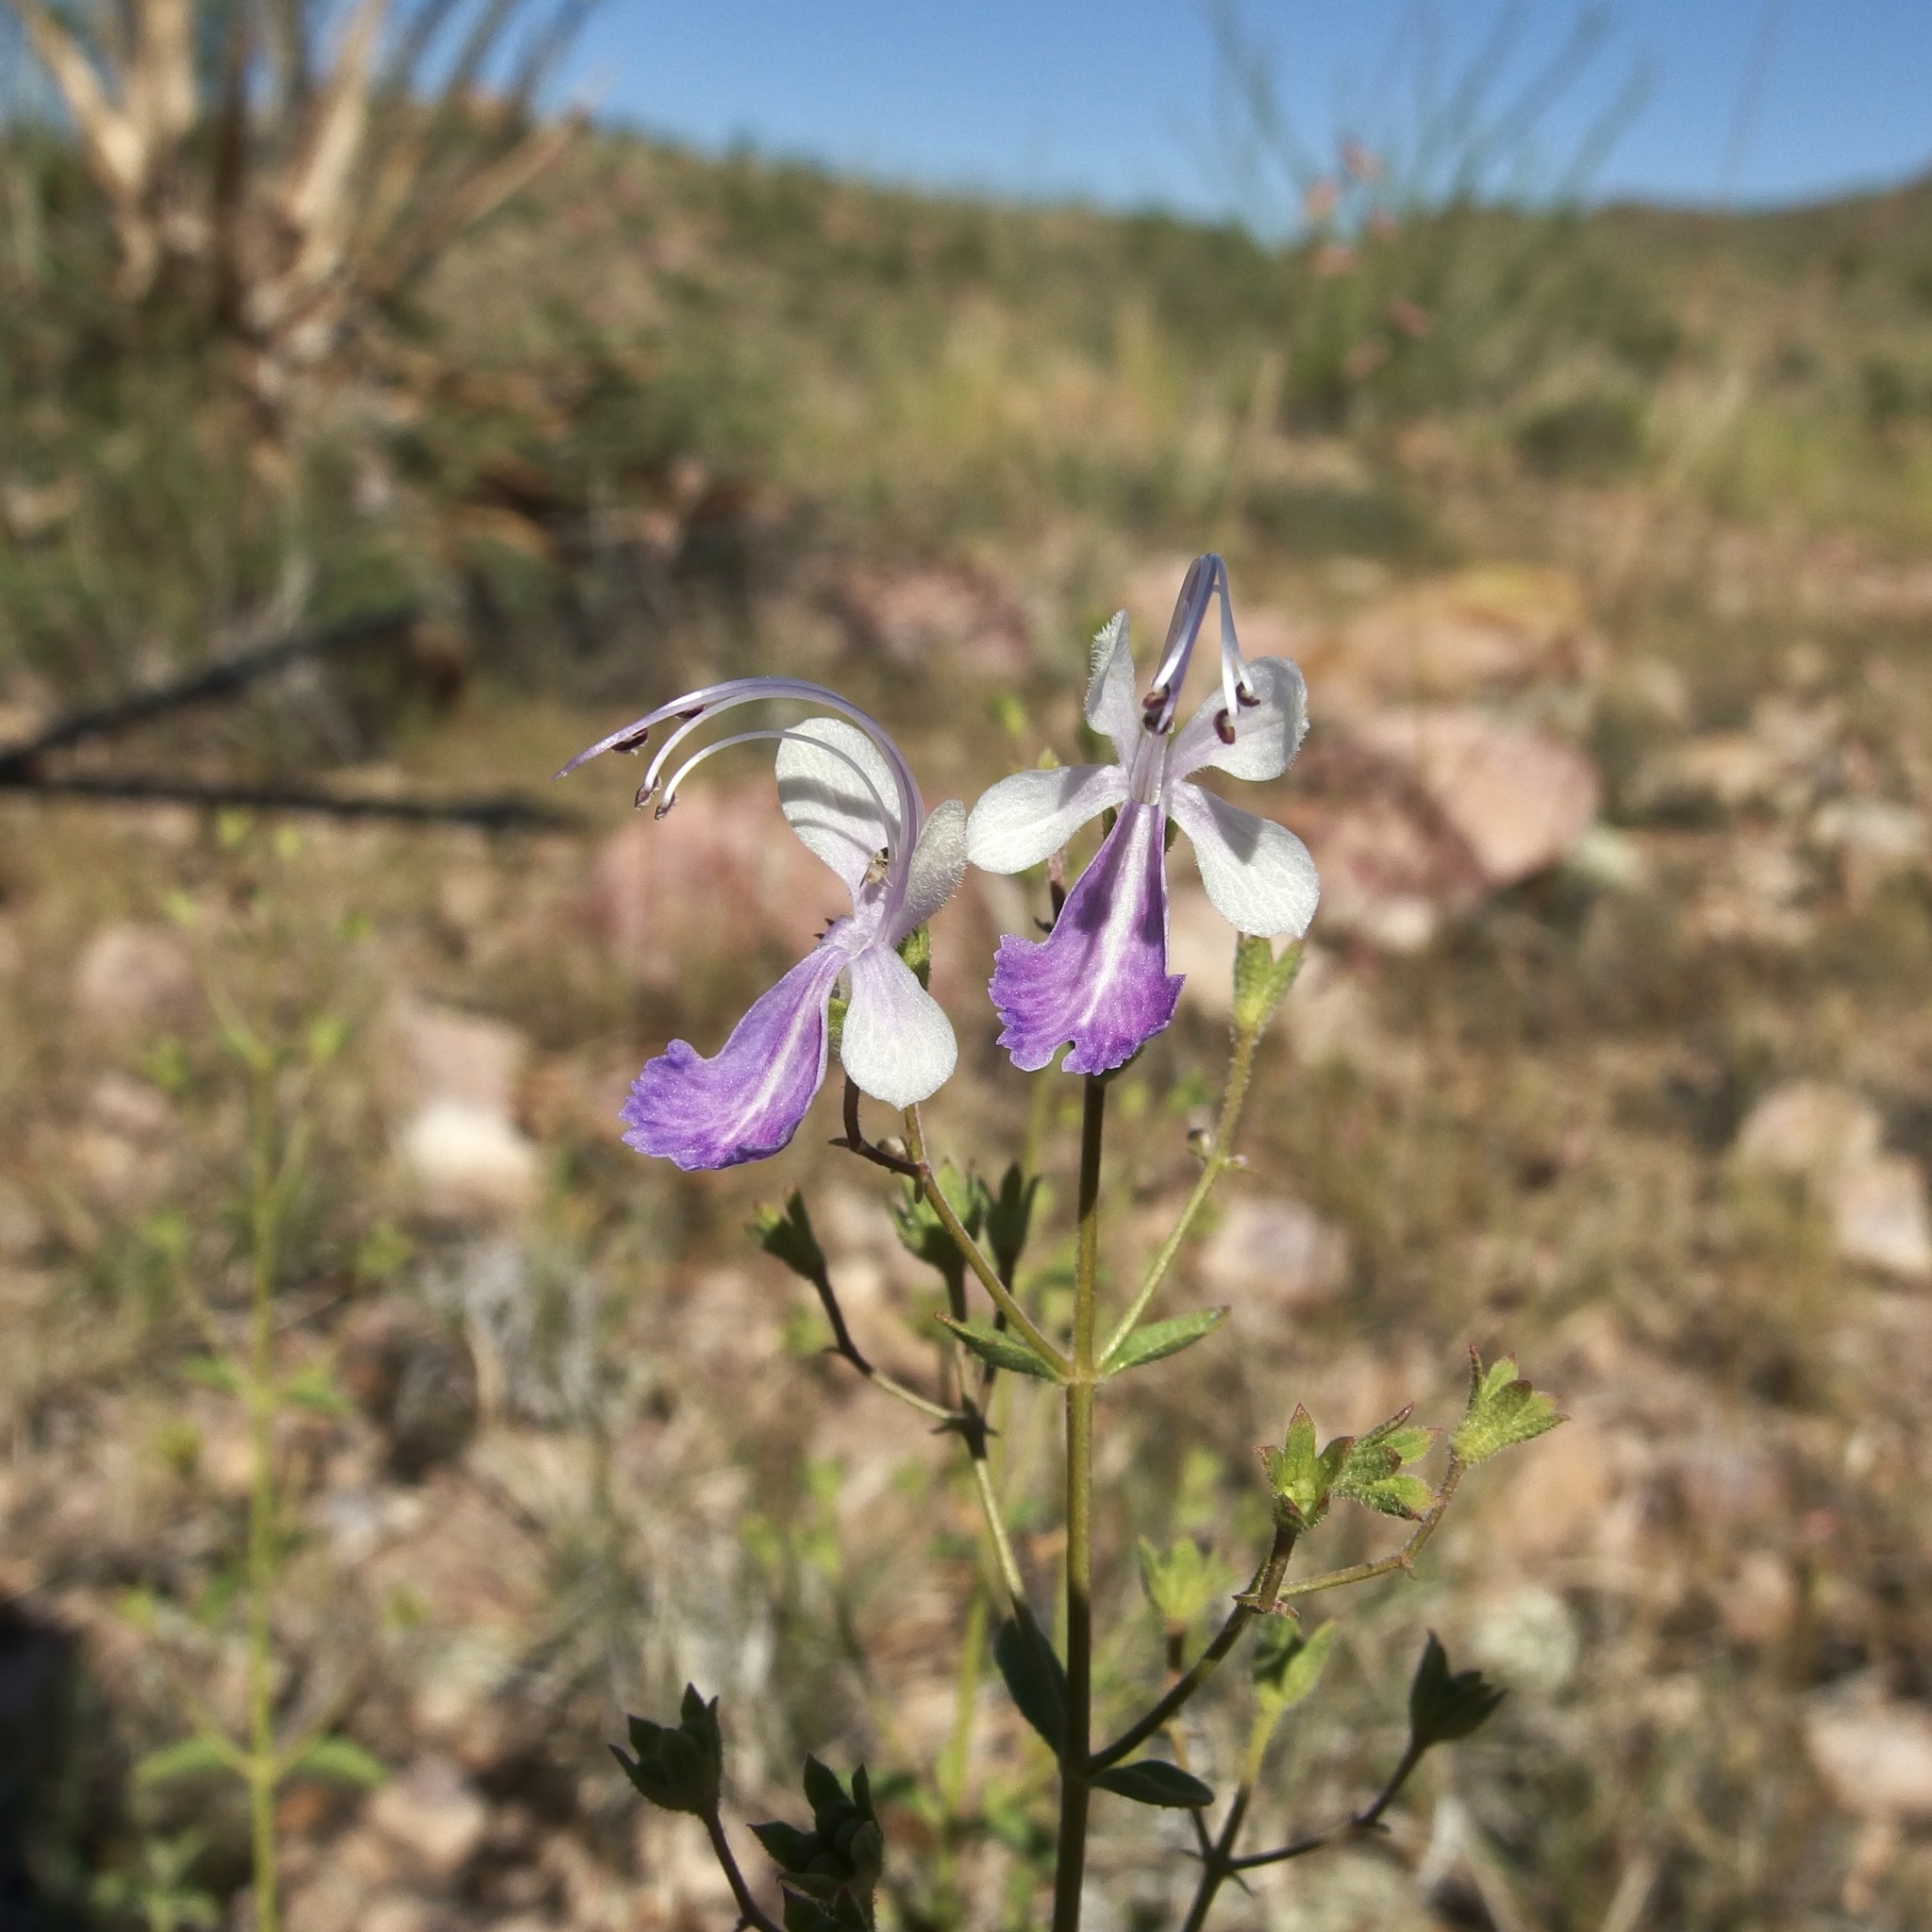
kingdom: Plantae
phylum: Tracheophyta
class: Magnoliopsida
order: Lamiales
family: Lamiaceae
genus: Trichostema
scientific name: Trichostema arizonicum
